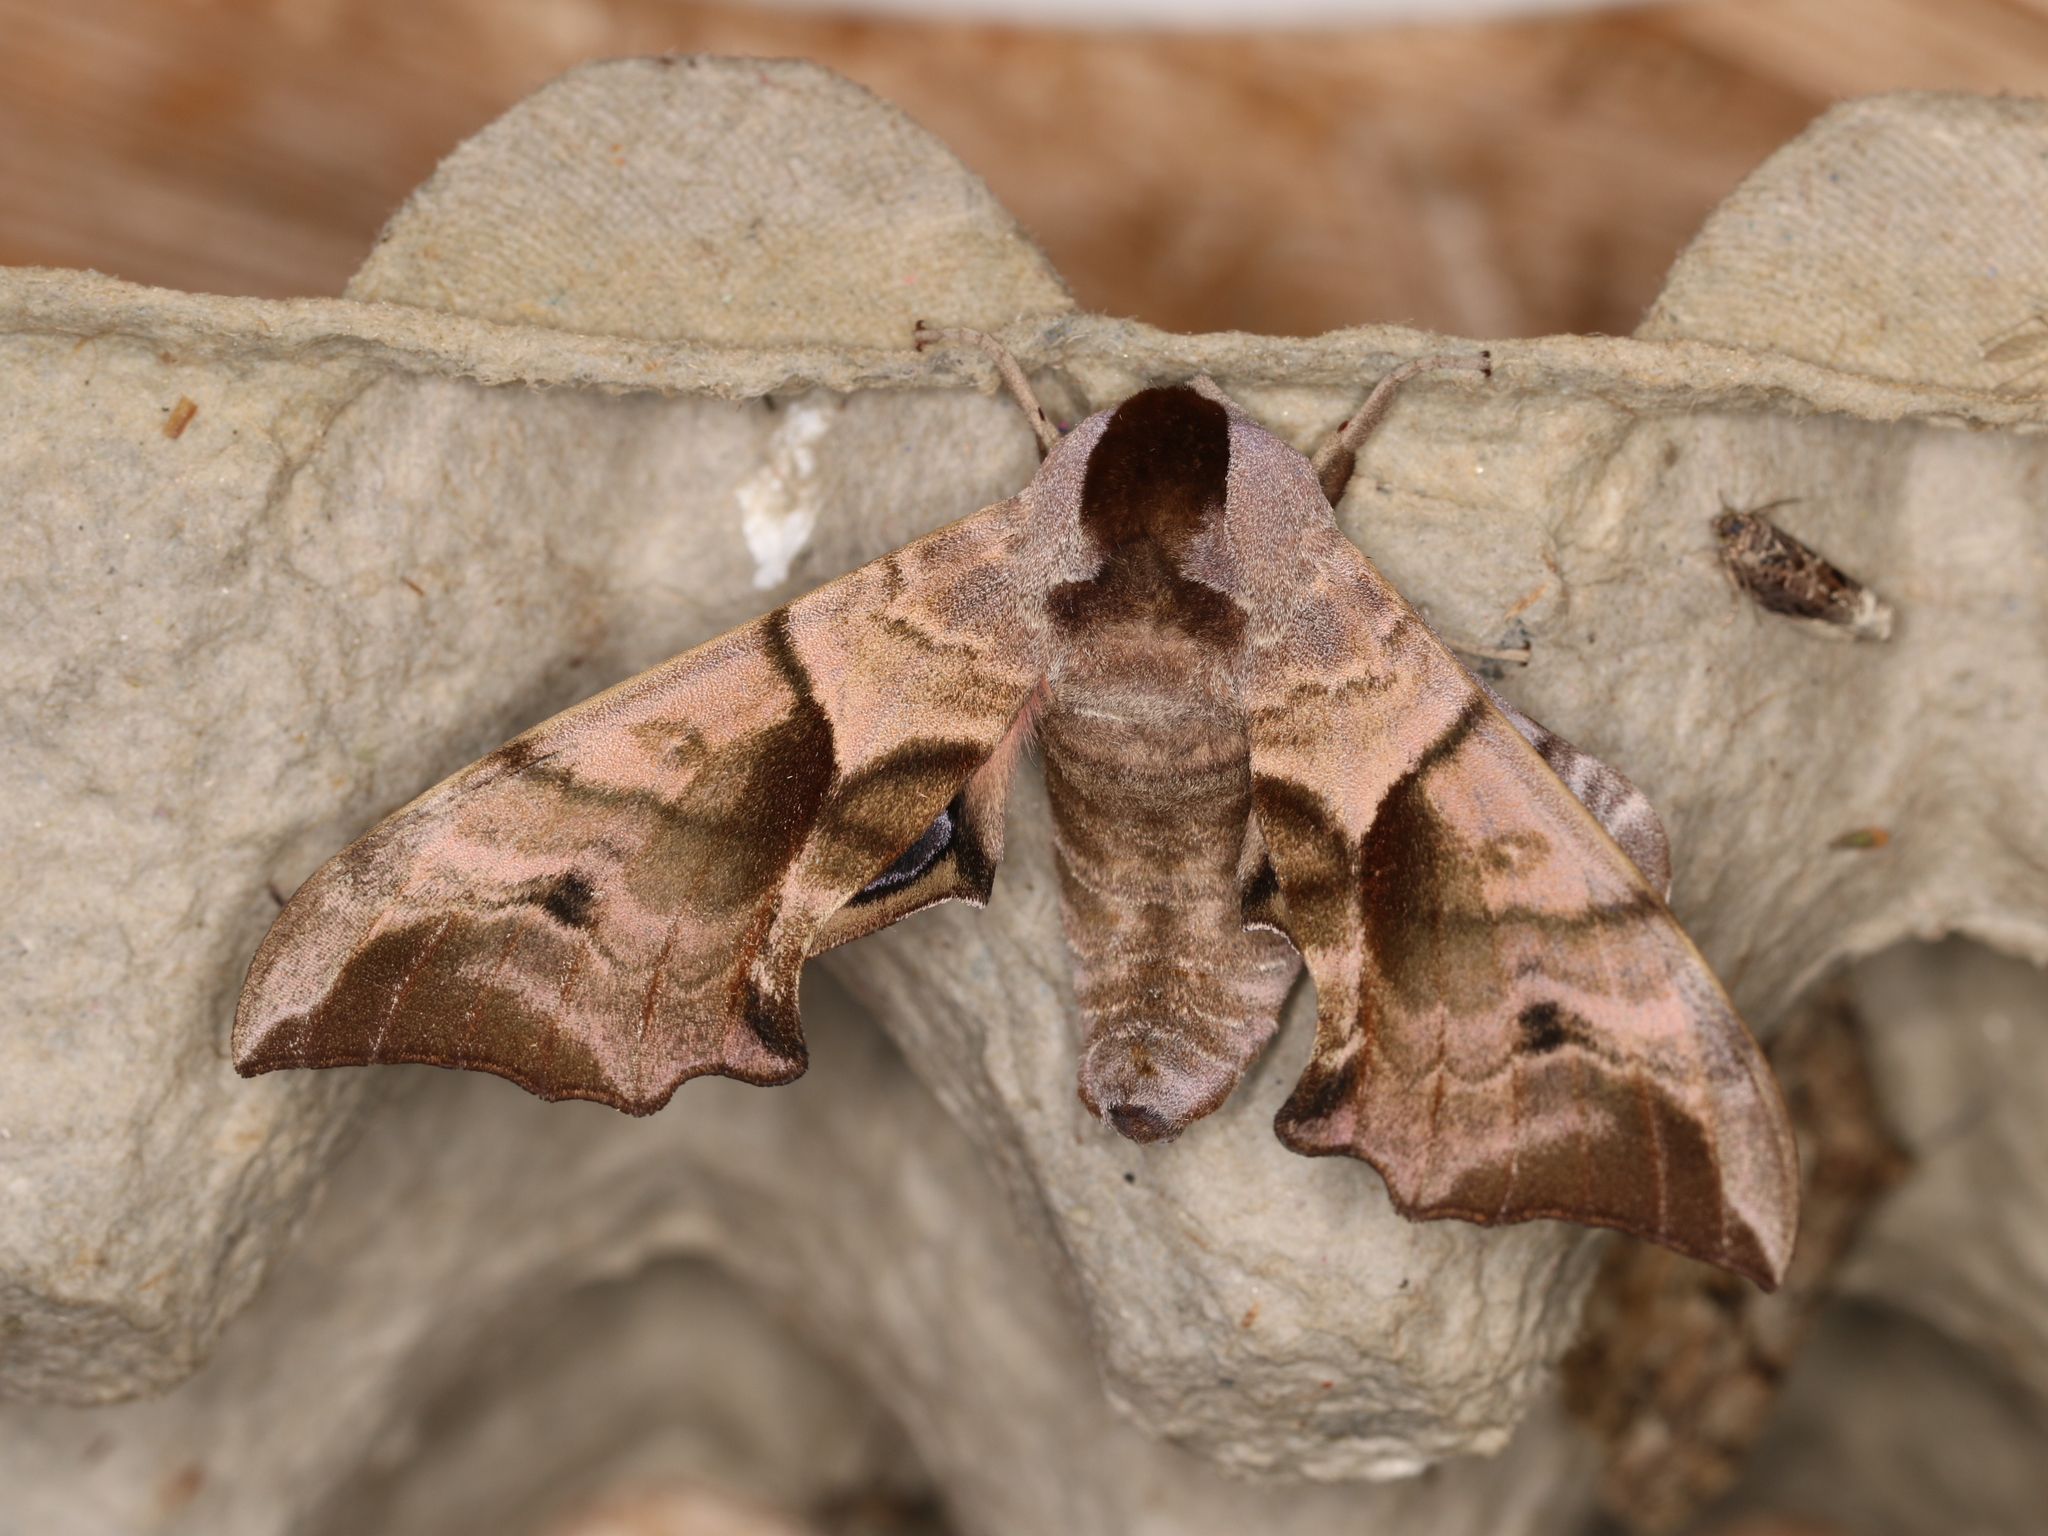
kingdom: Animalia
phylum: Arthropoda
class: Insecta
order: Lepidoptera
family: Sphingidae
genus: Smerinthus
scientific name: Smerinthus ocellata
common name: Eyed hawk-moth
